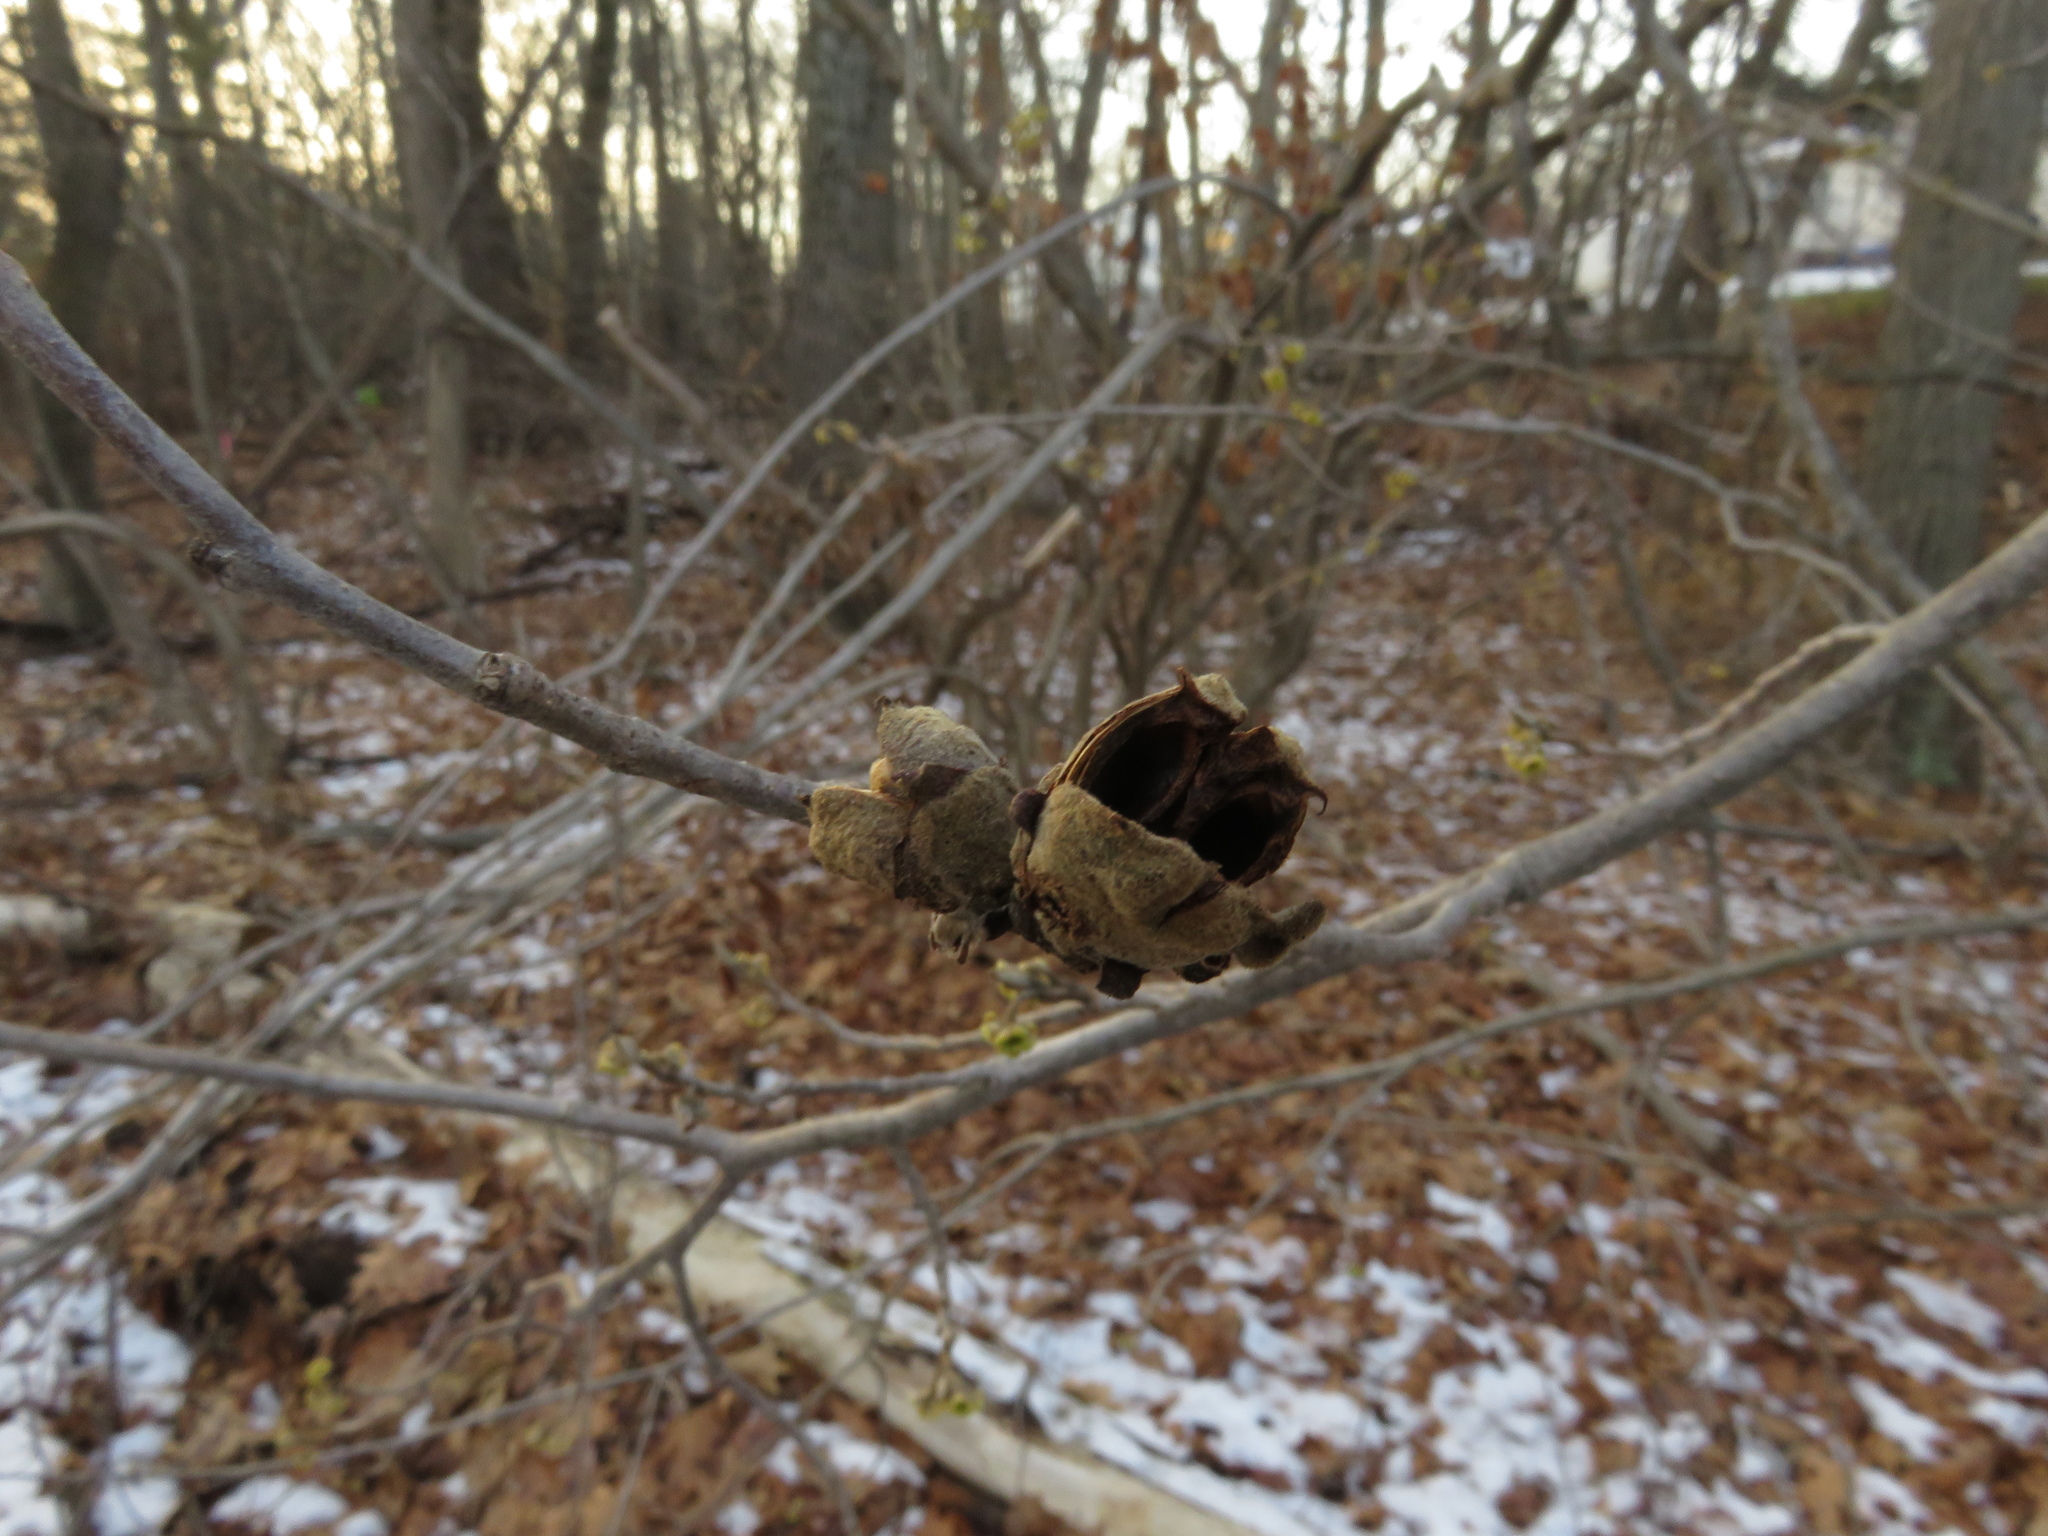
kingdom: Plantae
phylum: Tracheophyta
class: Magnoliopsida
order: Saxifragales
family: Hamamelidaceae
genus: Hamamelis
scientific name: Hamamelis virginiana
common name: Witch-hazel
